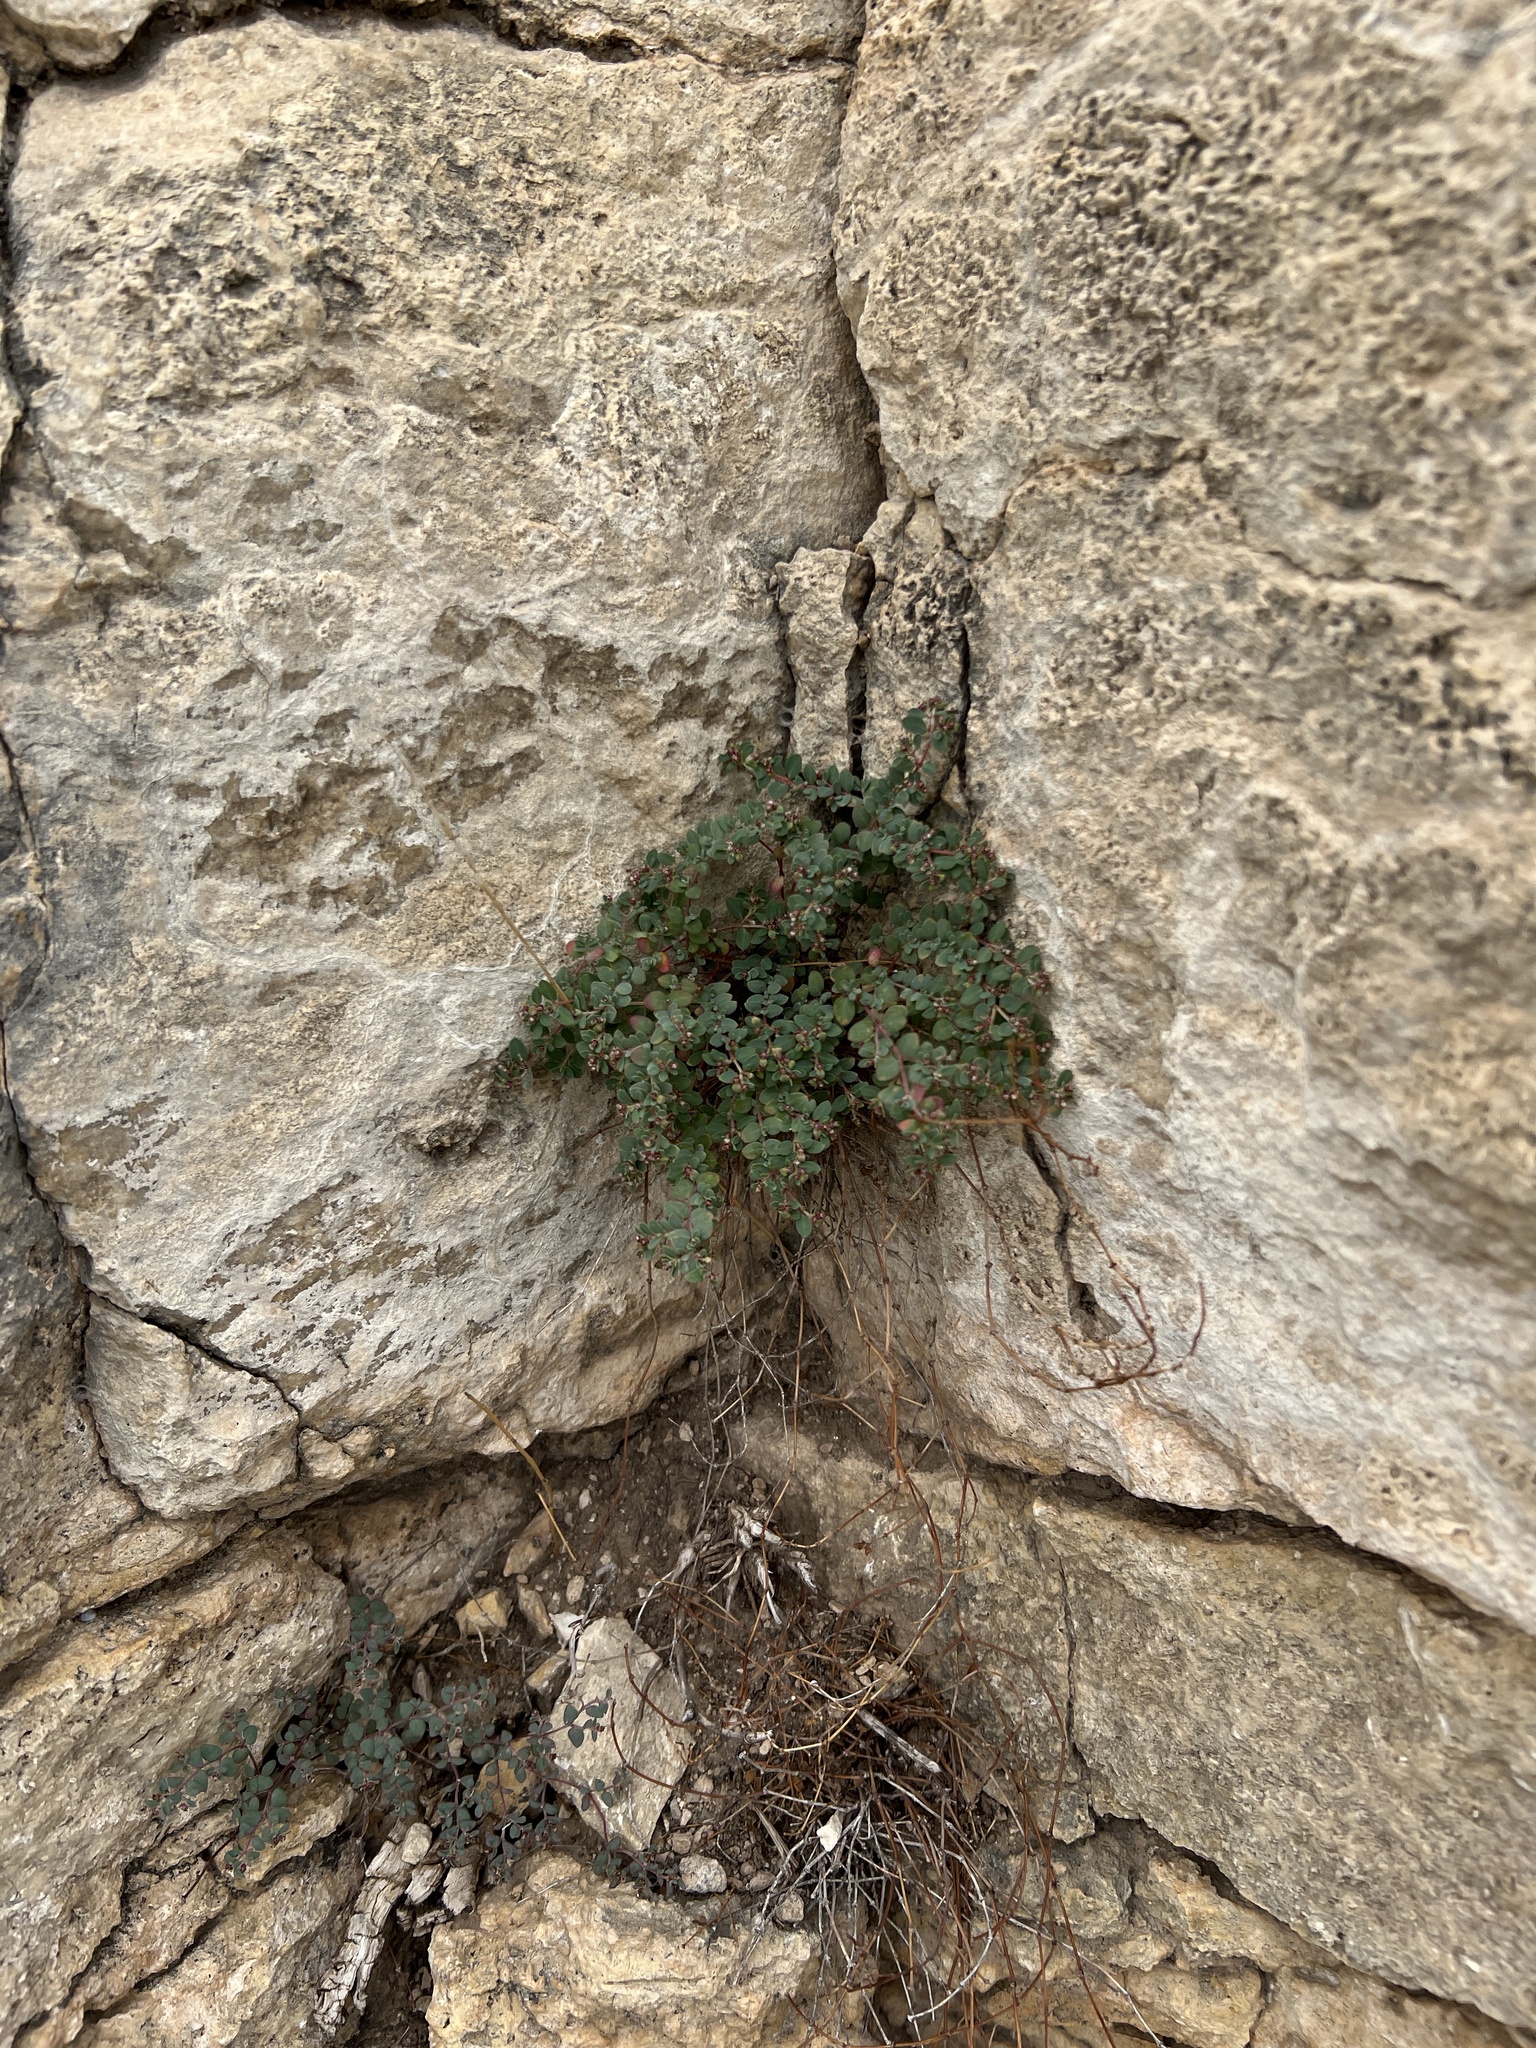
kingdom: Plantae
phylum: Tracheophyta
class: Magnoliopsida
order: Malpighiales
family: Euphorbiaceae
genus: Euphorbia
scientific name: Euphorbia cinerascens
